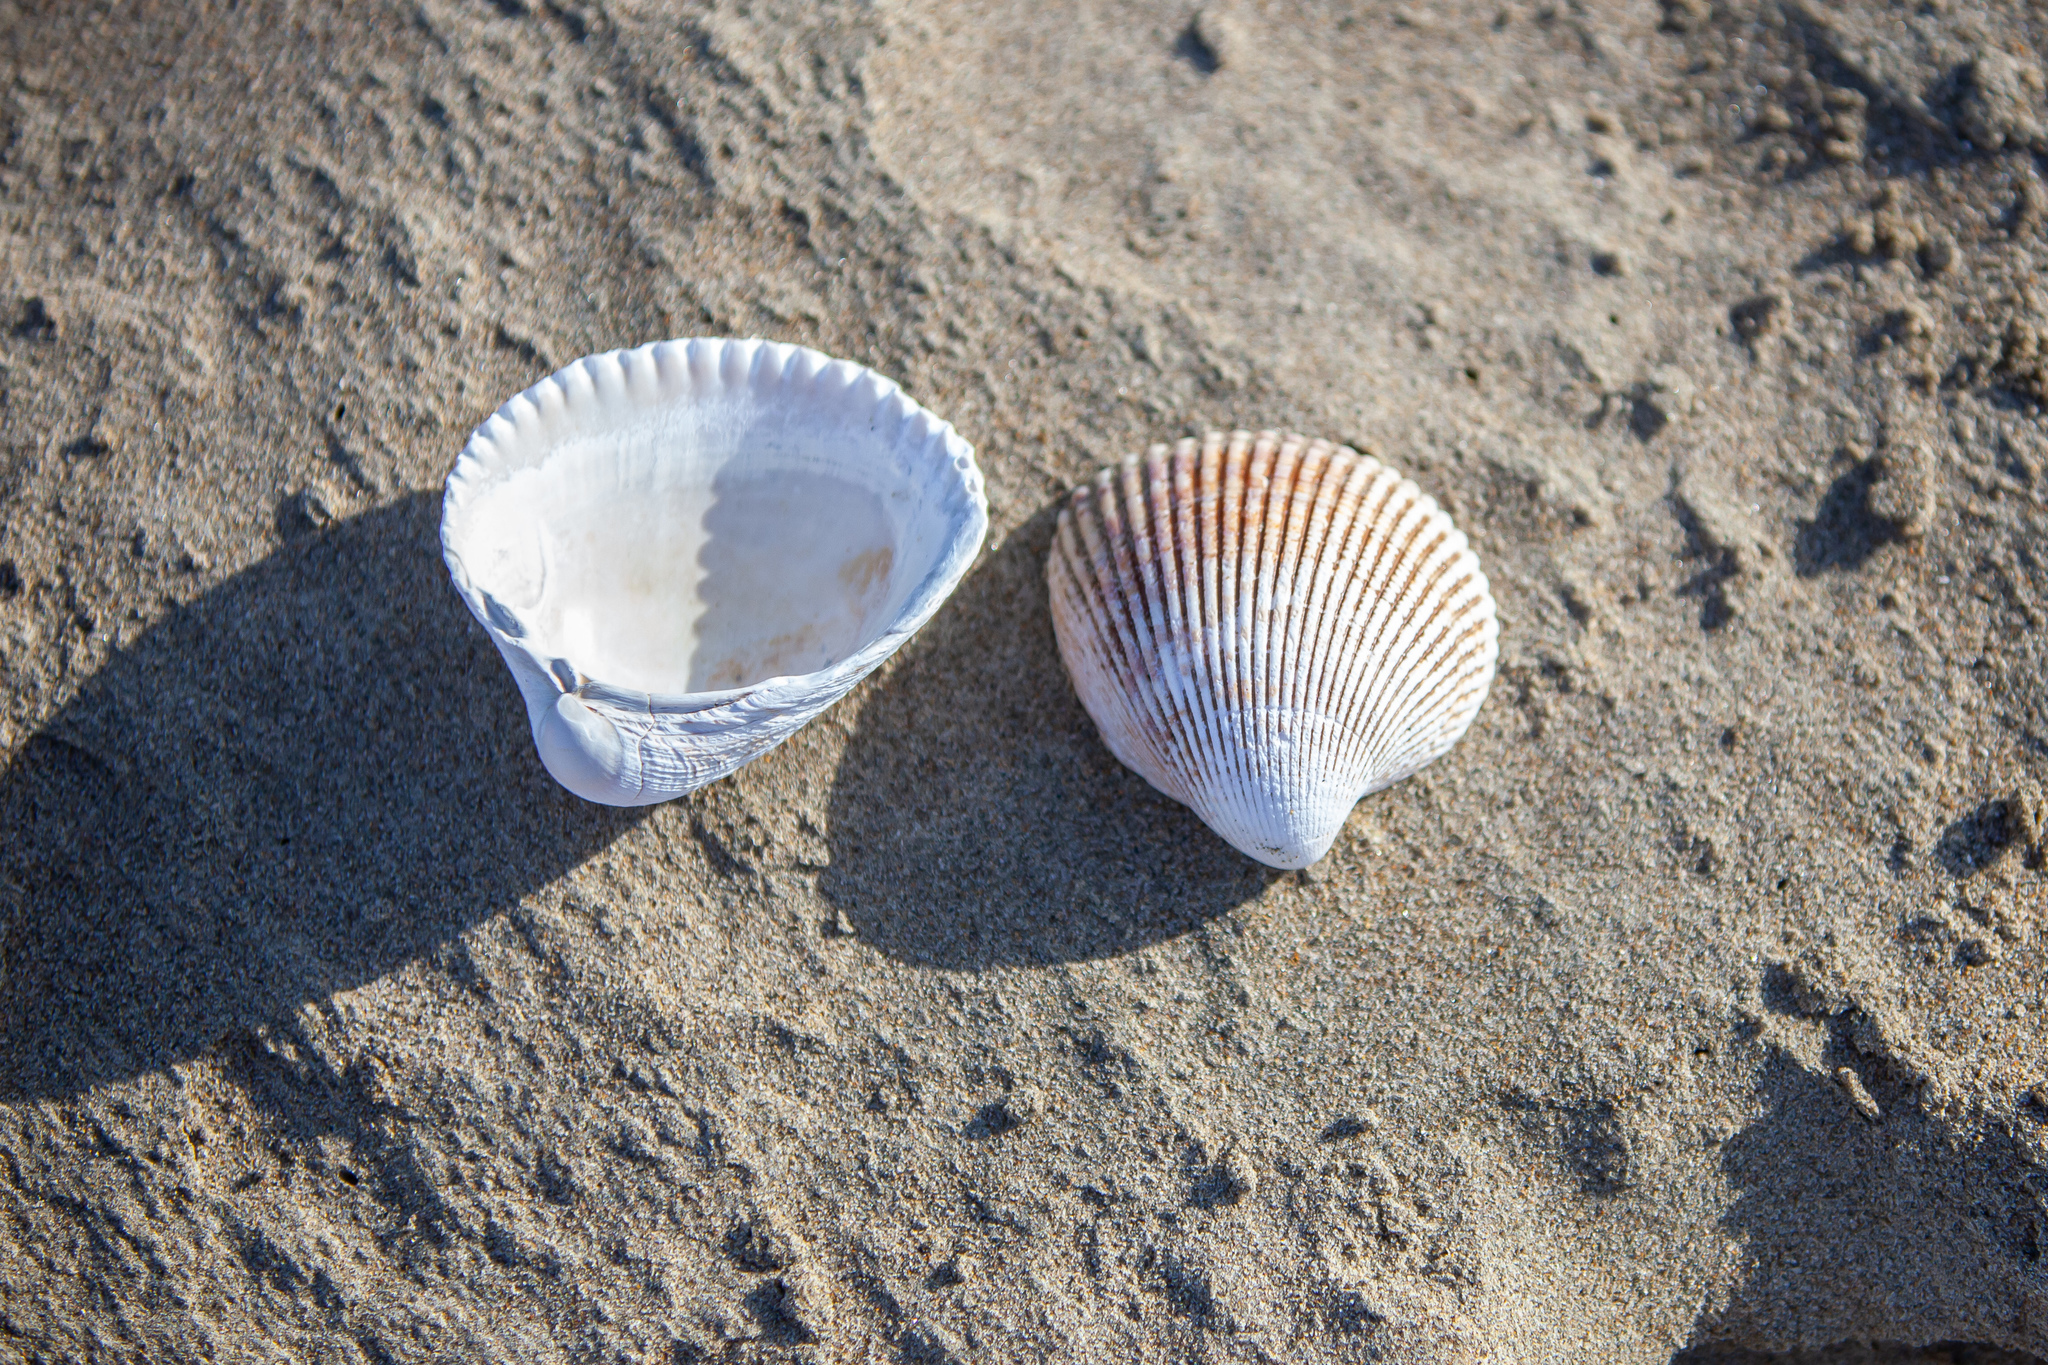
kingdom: Animalia
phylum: Mollusca
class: Bivalvia
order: Cardiida
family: Cardiidae
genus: Clinocardium
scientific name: Clinocardium nuttallii
